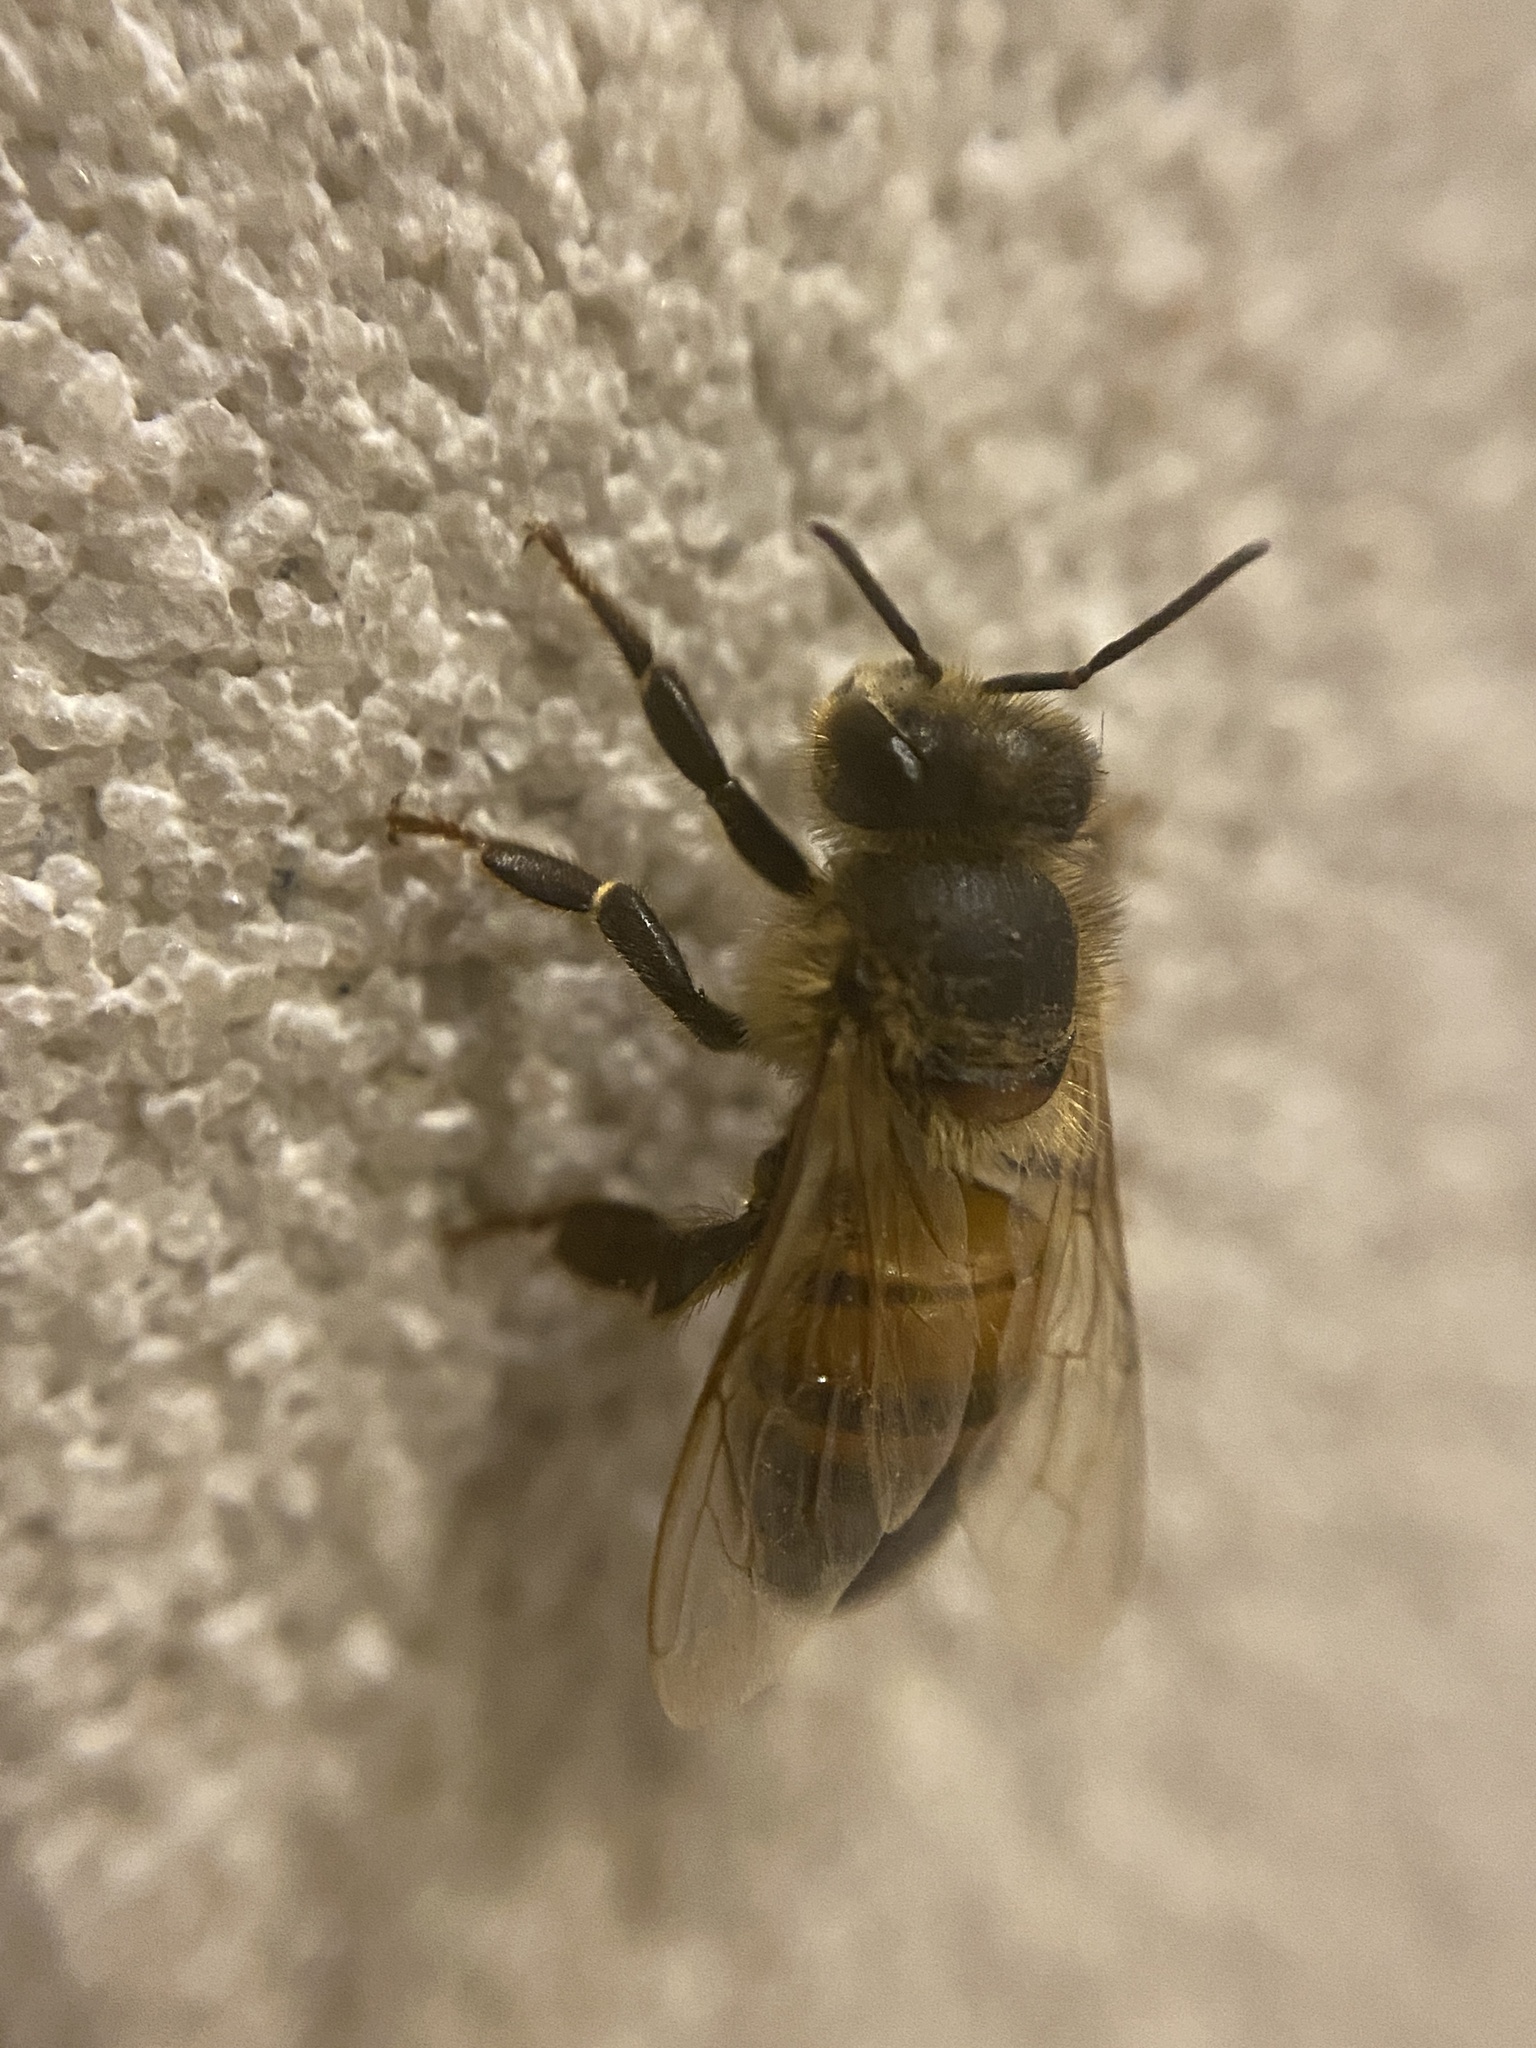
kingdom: Animalia
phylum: Arthropoda
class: Insecta
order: Hymenoptera
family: Apidae
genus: Apis
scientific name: Apis mellifera
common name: Honey bee
